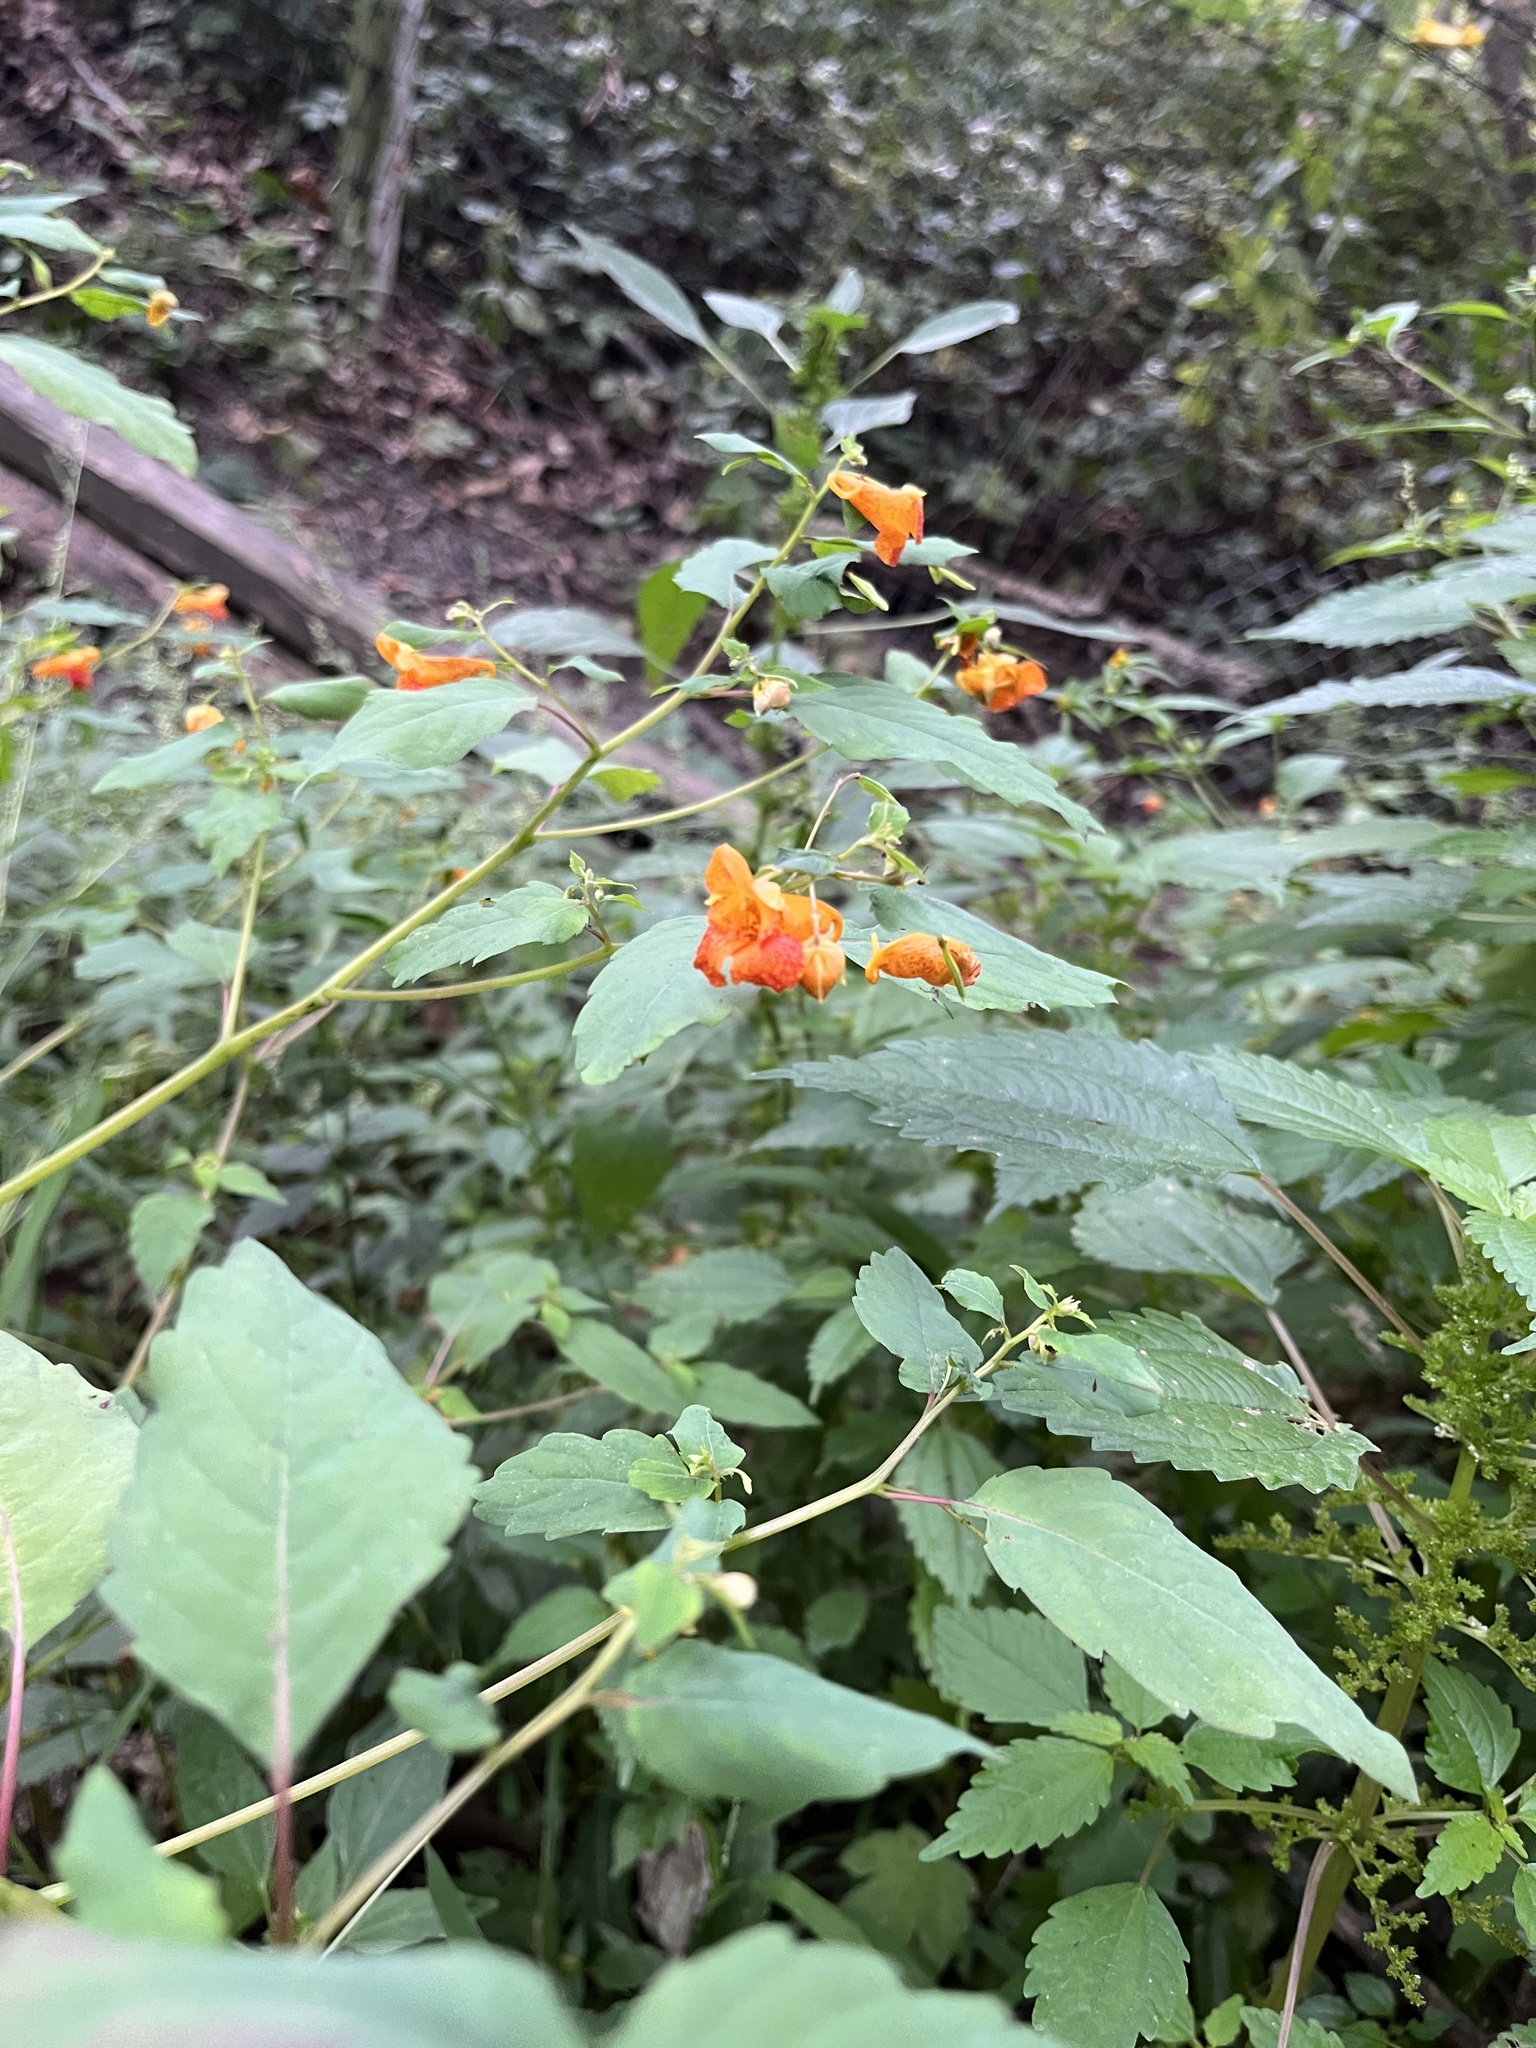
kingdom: Plantae
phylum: Tracheophyta
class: Magnoliopsida
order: Ericales
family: Balsaminaceae
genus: Impatiens
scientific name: Impatiens capensis
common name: Orange balsam
